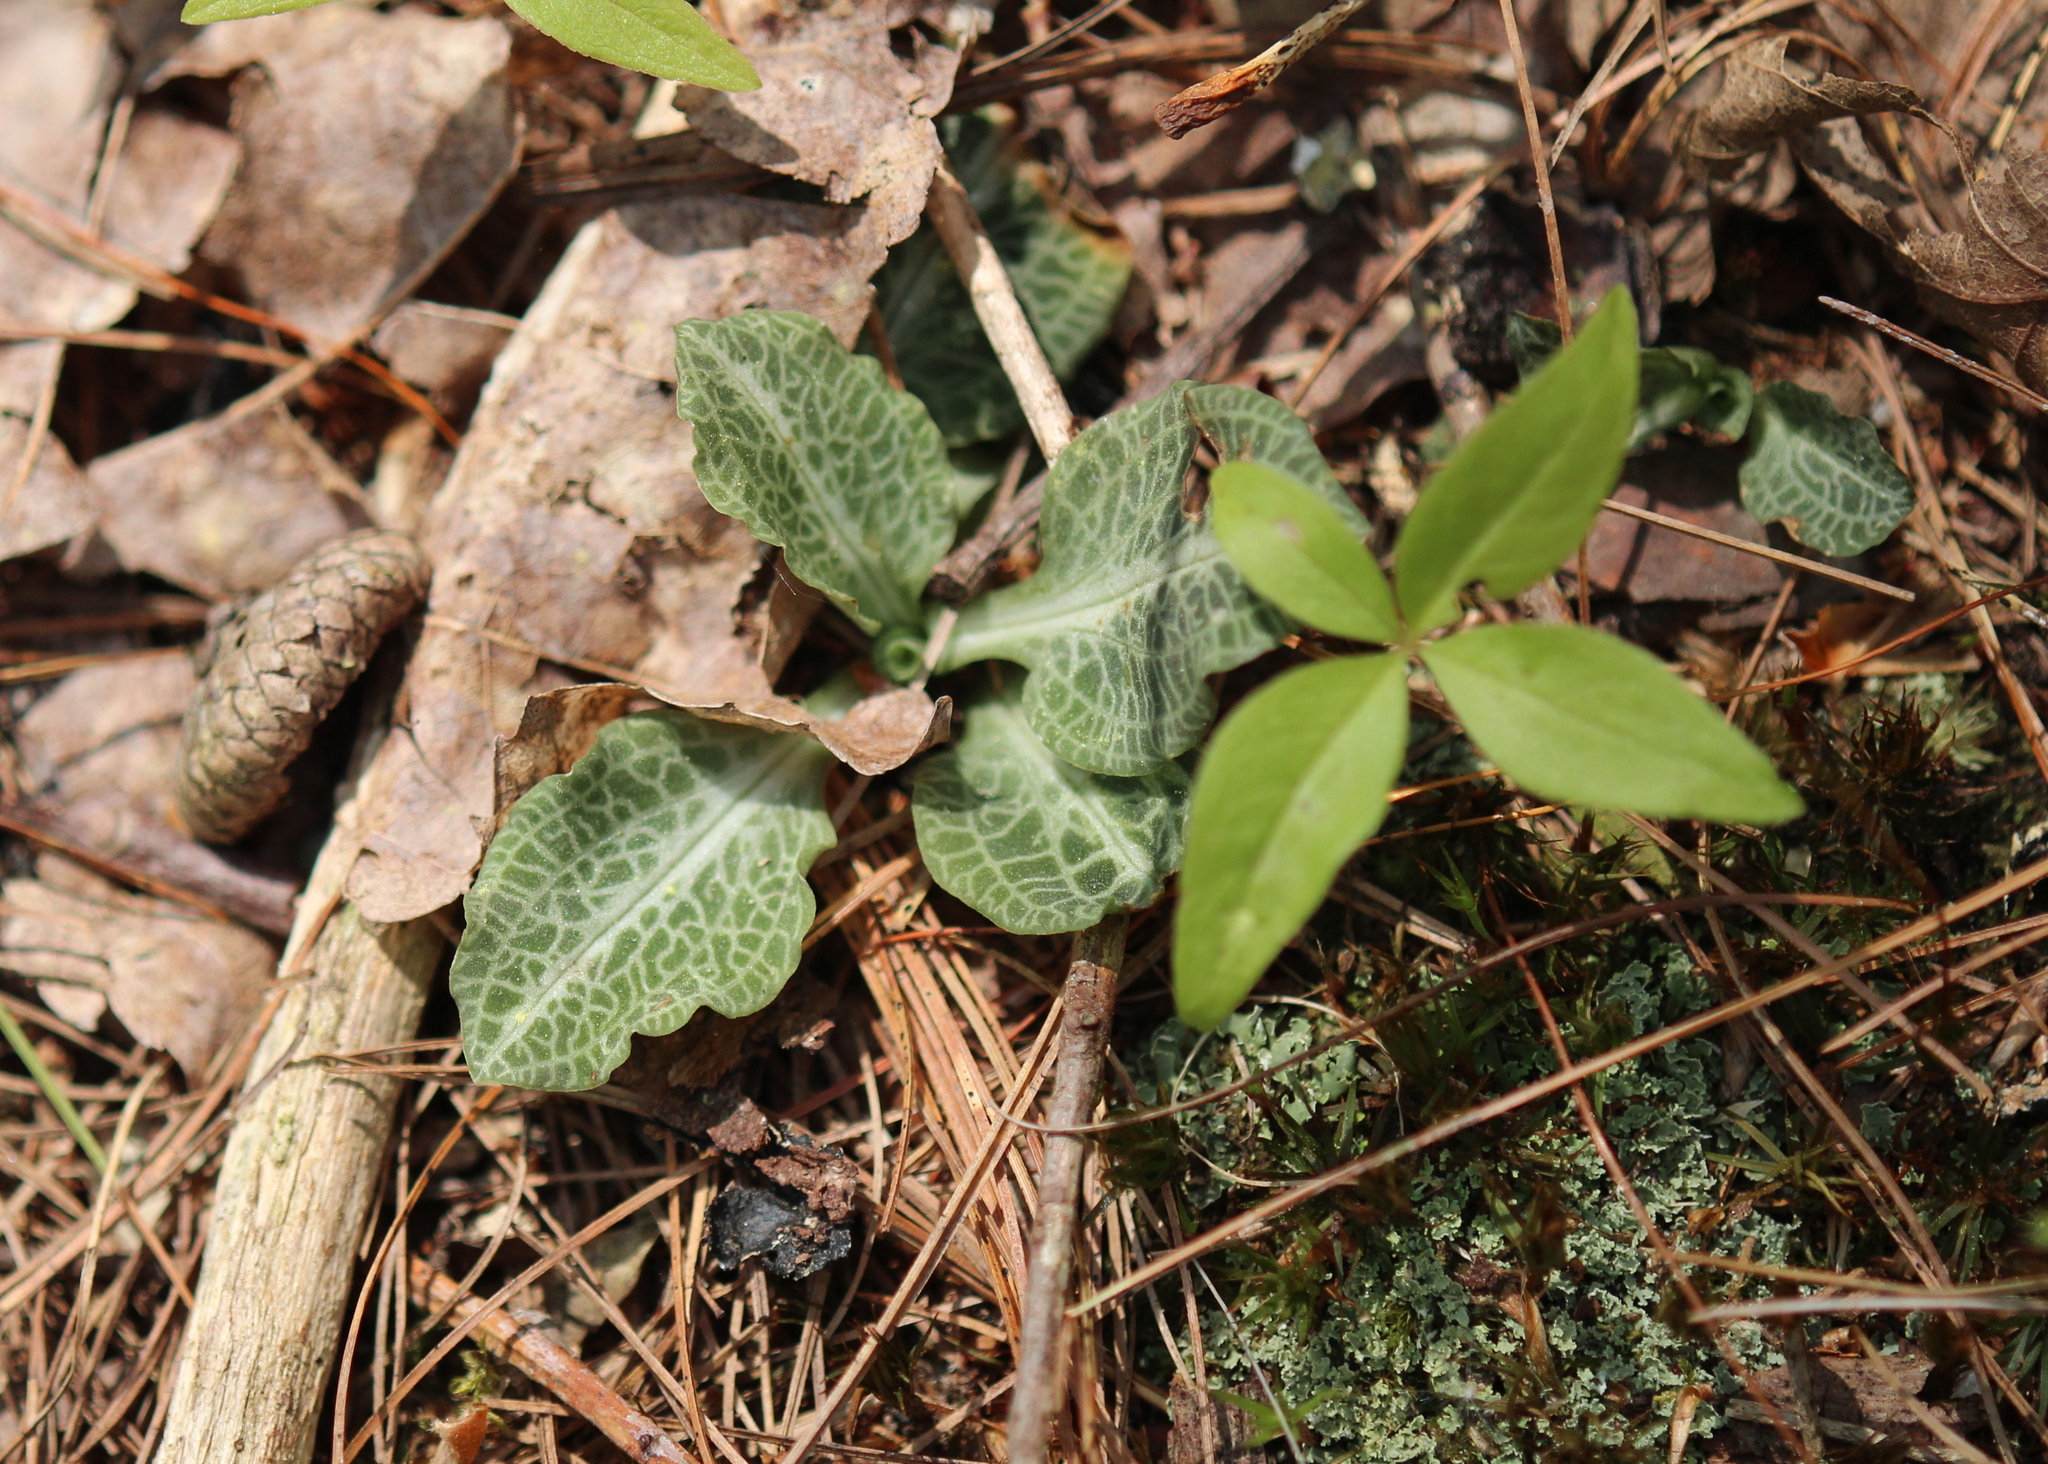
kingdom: Plantae
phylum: Tracheophyta
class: Liliopsida
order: Asparagales
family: Orchidaceae
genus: Goodyera
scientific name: Goodyera pubescens
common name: Downy rattlesnake-plantain
